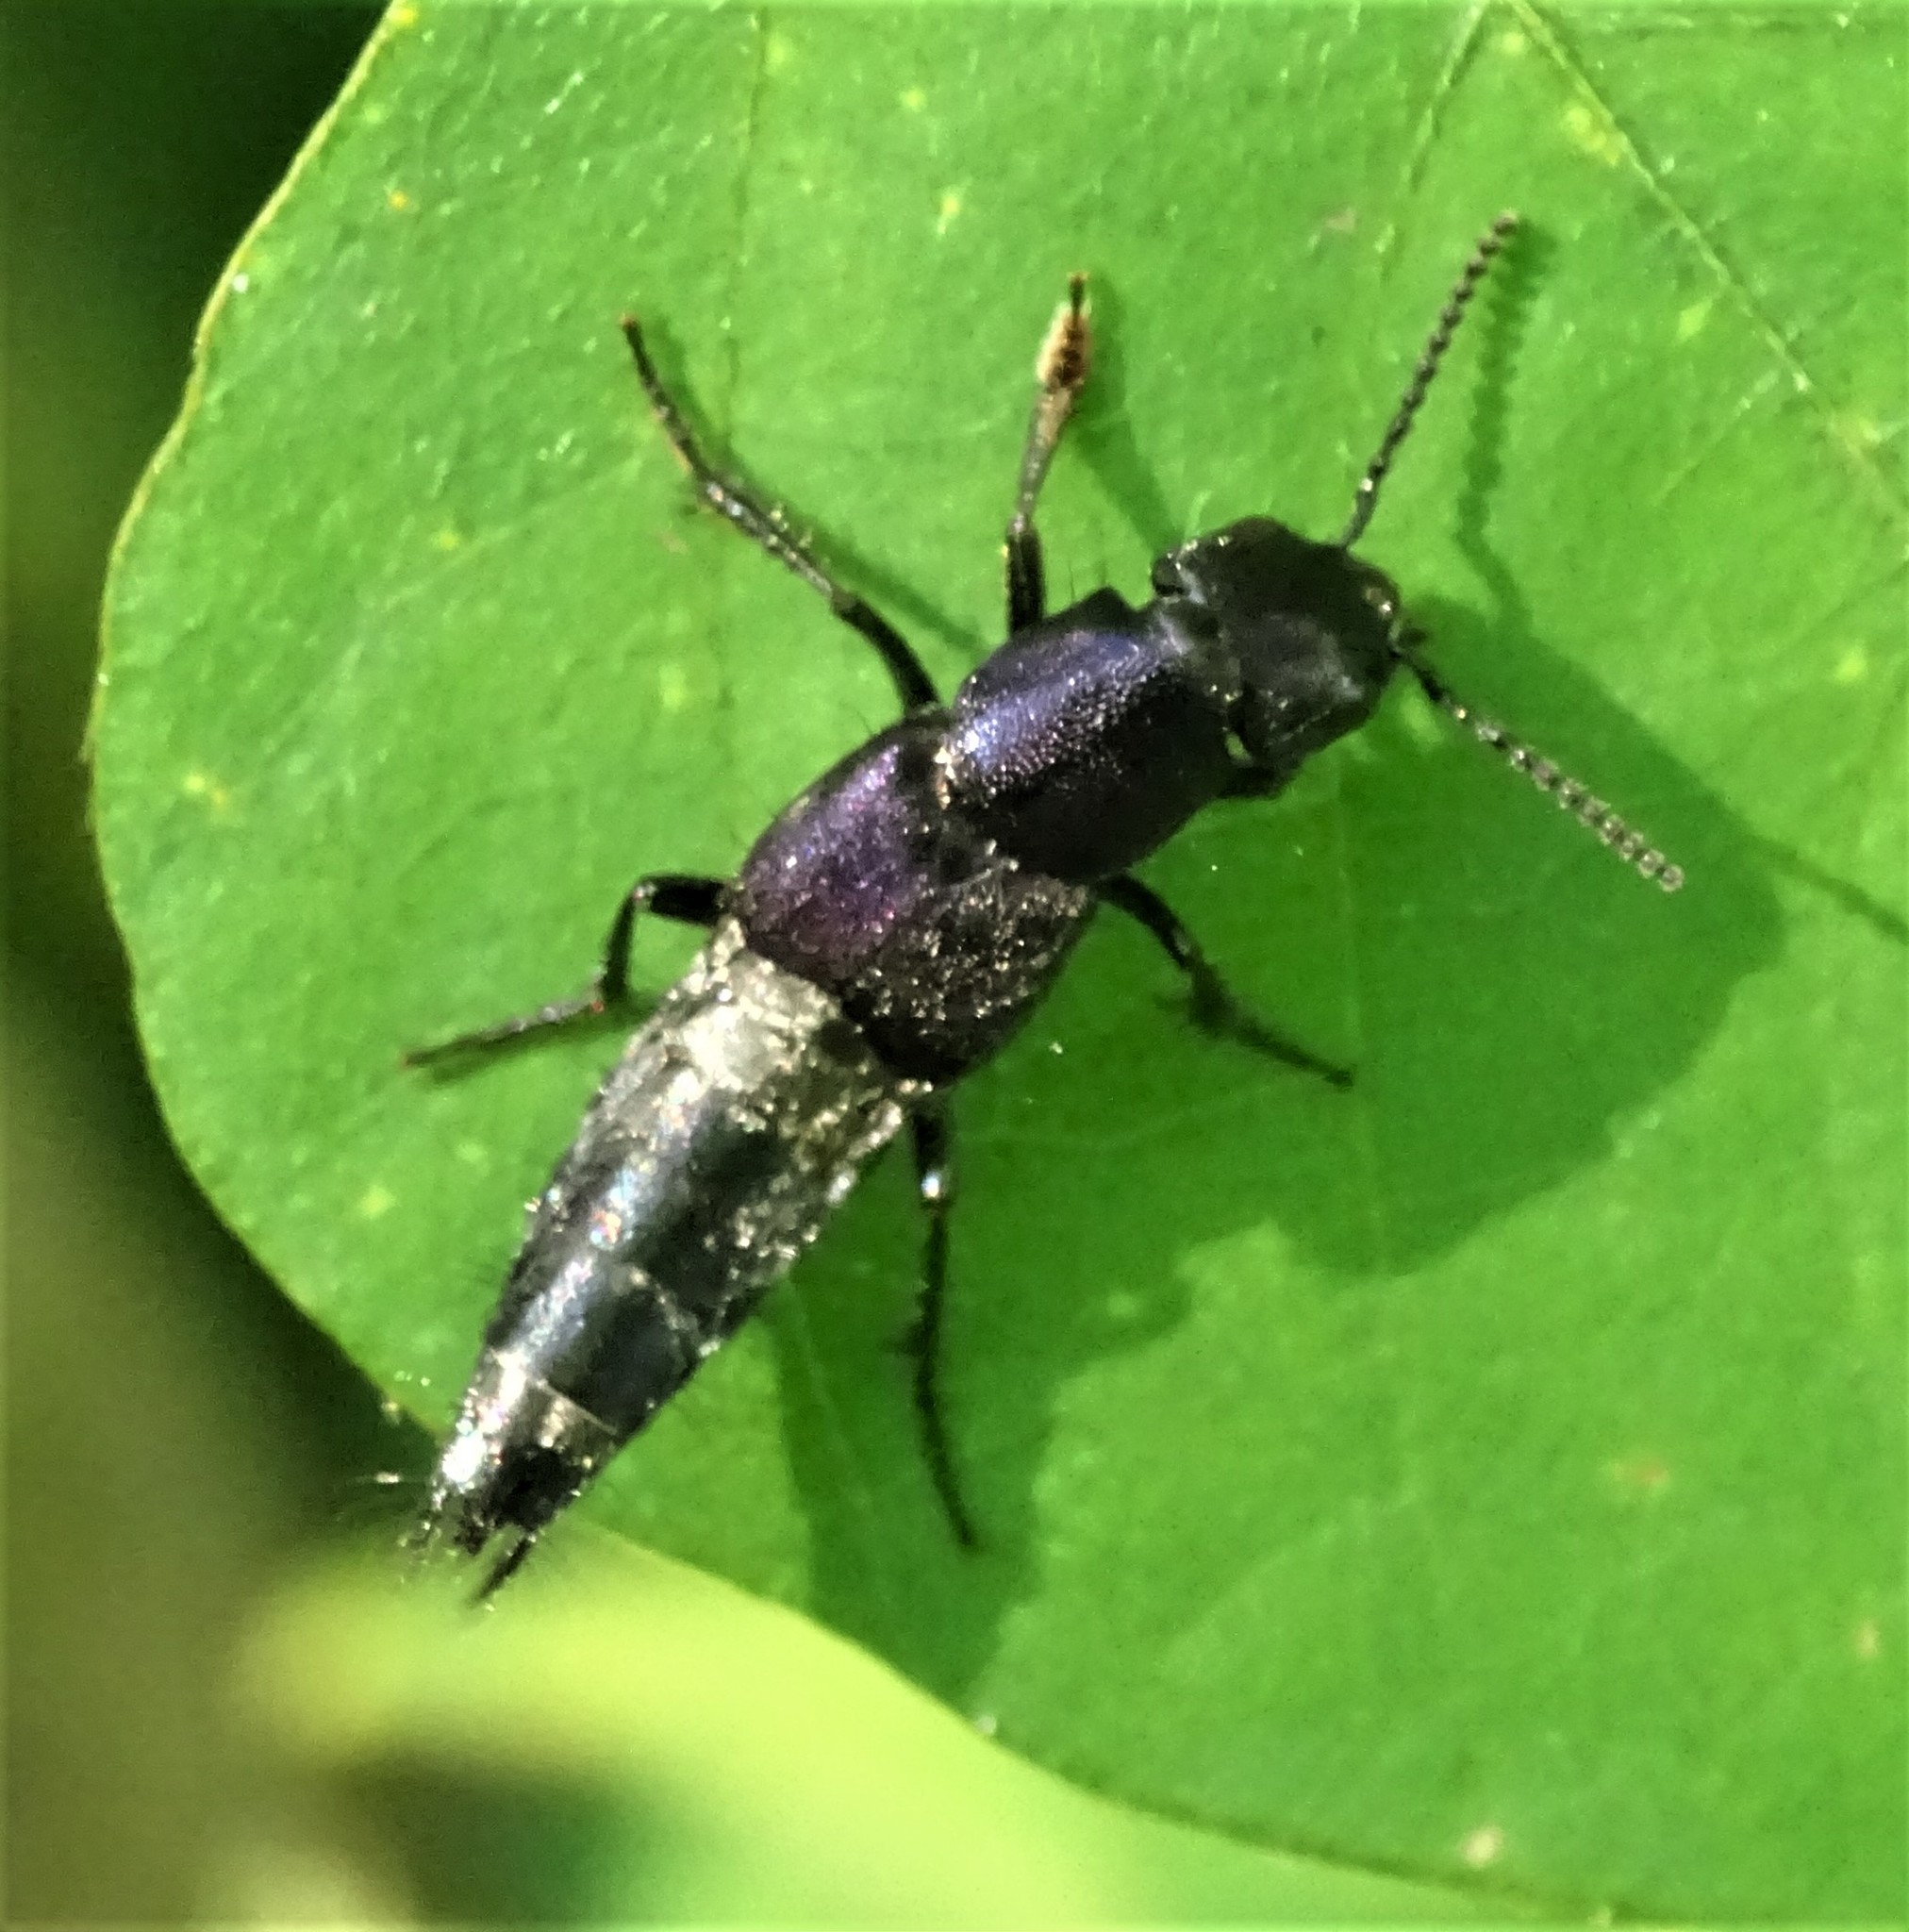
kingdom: Animalia
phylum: Arthropoda
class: Insecta
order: Coleoptera
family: Staphylinidae
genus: Platydracus
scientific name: Platydracus violaceus
